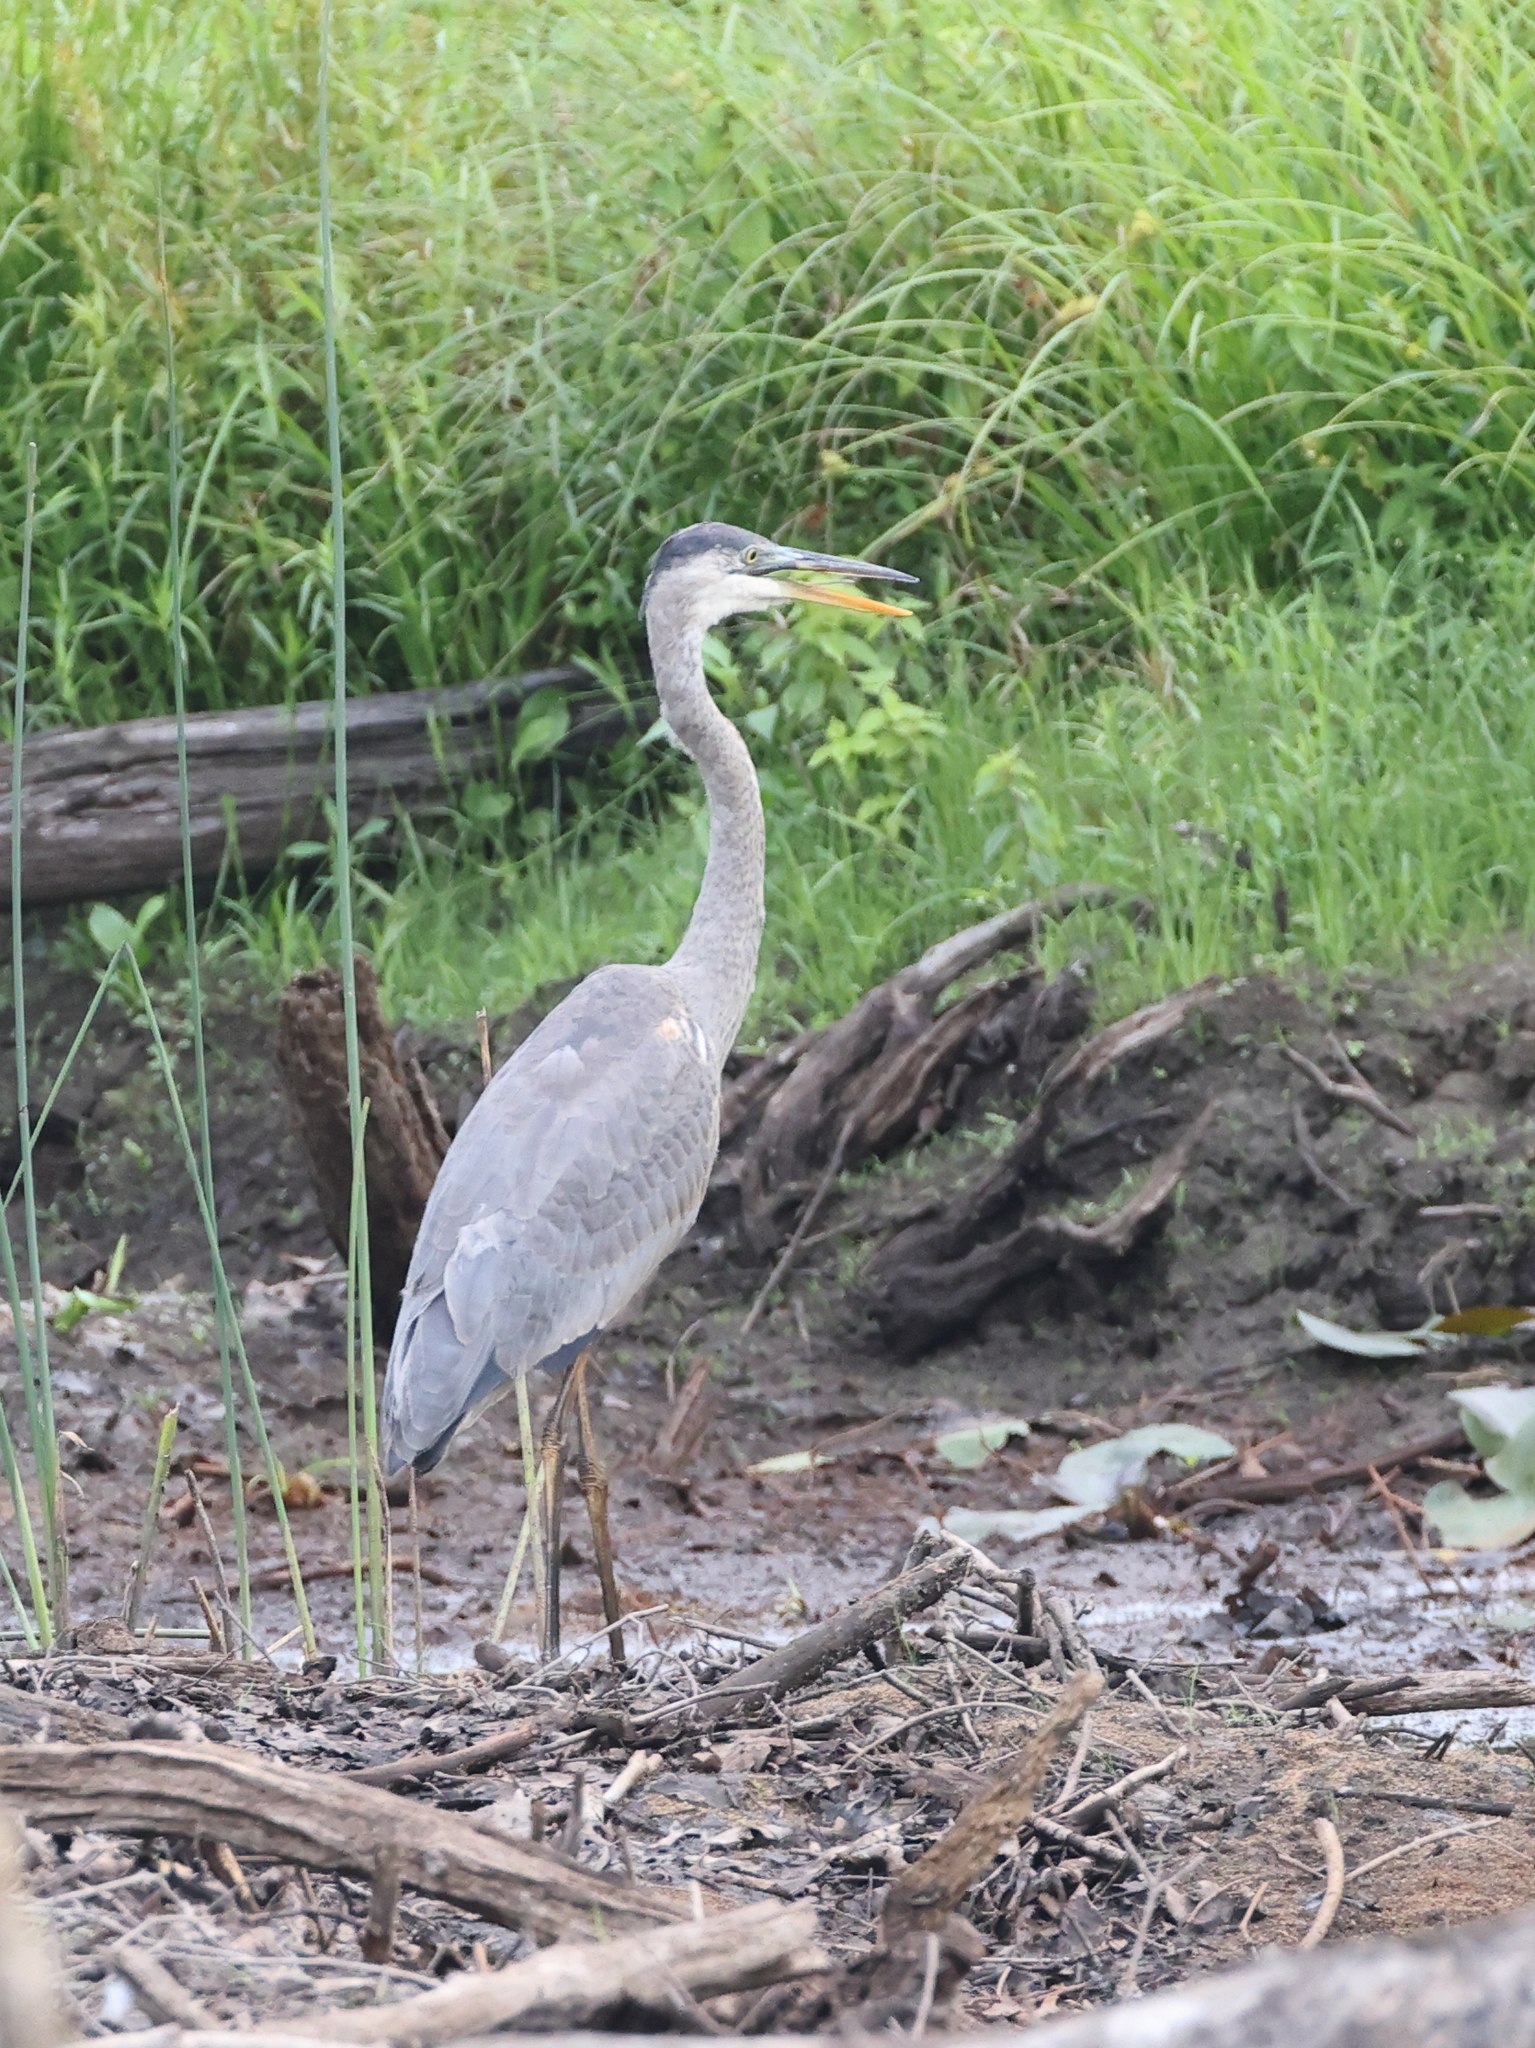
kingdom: Animalia
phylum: Chordata
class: Aves
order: Pelecaniformes
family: Ardeidae
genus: Ardea
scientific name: Ardea herodias
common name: Great blue heron
